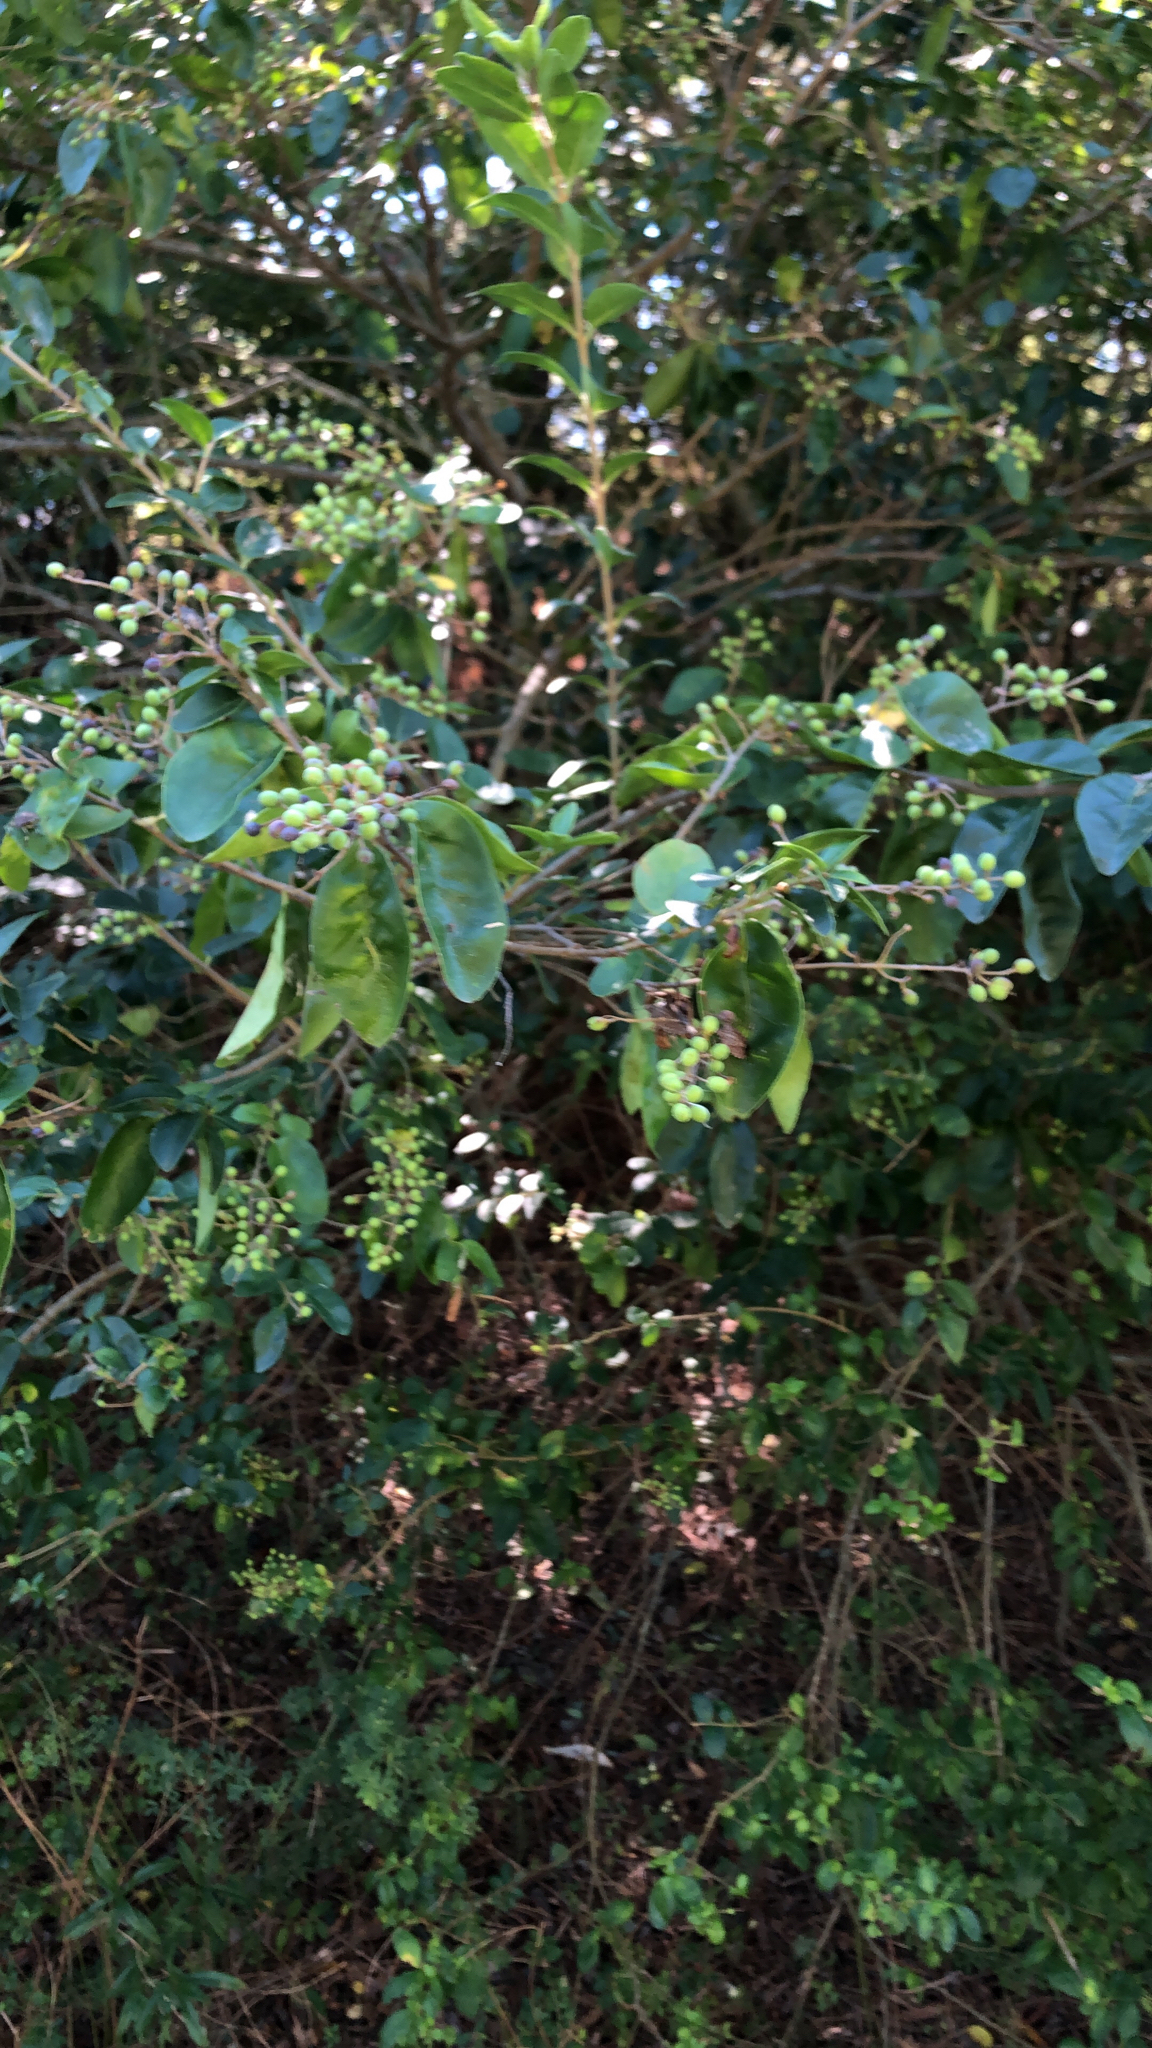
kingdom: Plantae
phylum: Tracheophyta
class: Magnoliopsida
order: Lamiales
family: Oleaceae
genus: Ligustrum
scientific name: Ligustrum sinense
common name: Chinese privet
